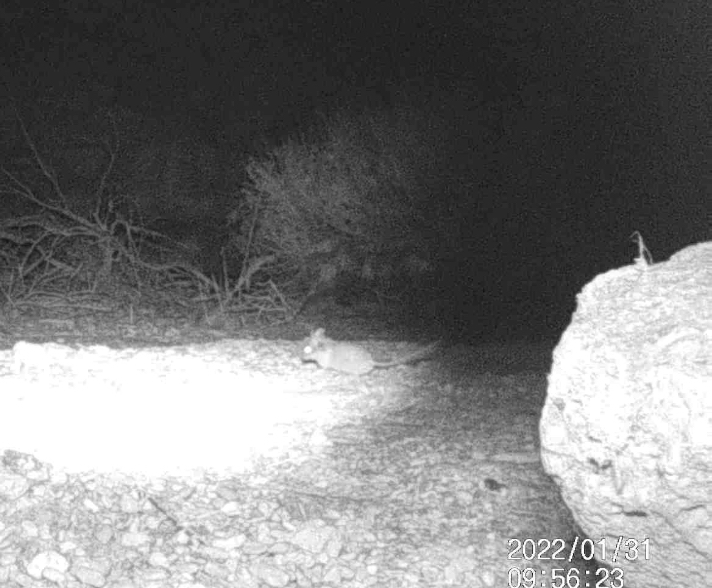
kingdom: Animalia
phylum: Chordata
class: Mammalia
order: Rodentia
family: Cricetidae
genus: Neotoma
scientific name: Neotoma lepida
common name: Desert woodrat
